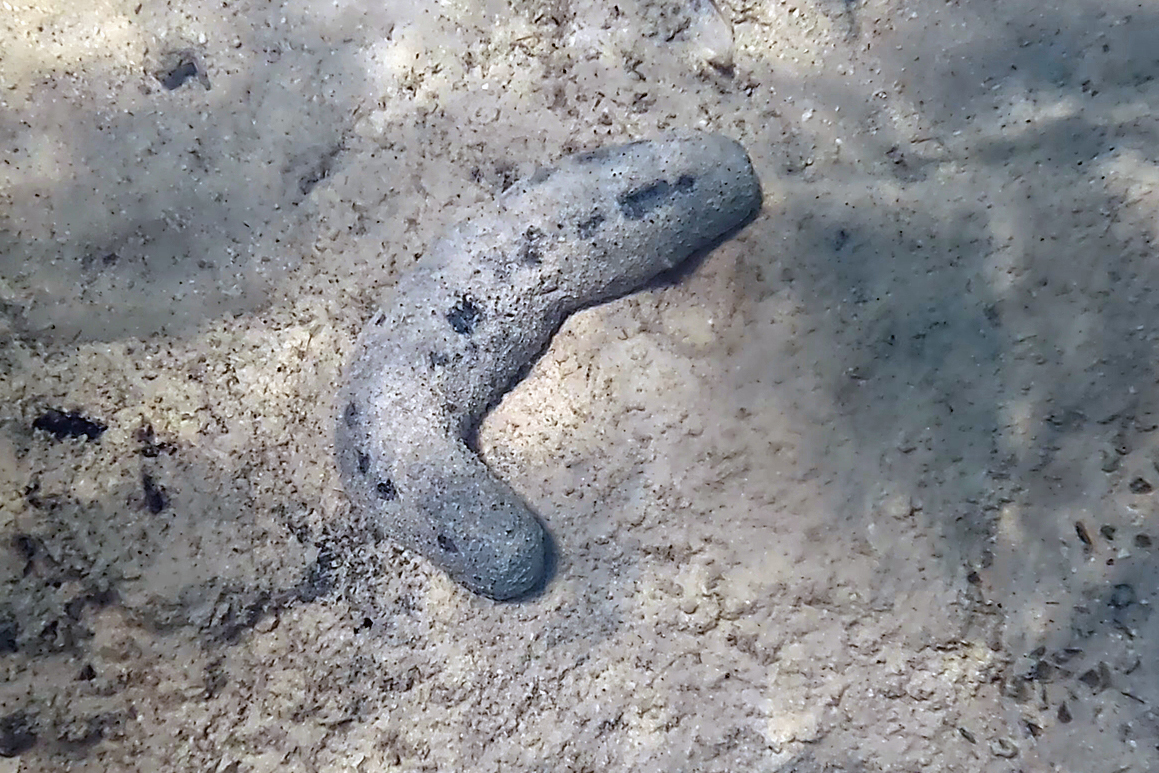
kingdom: Animalia
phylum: Echinodermata
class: Holothuroidea
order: Holothuriida
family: Holothuriidae
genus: Holothuria
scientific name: Holothuria atra
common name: Lollyfish
